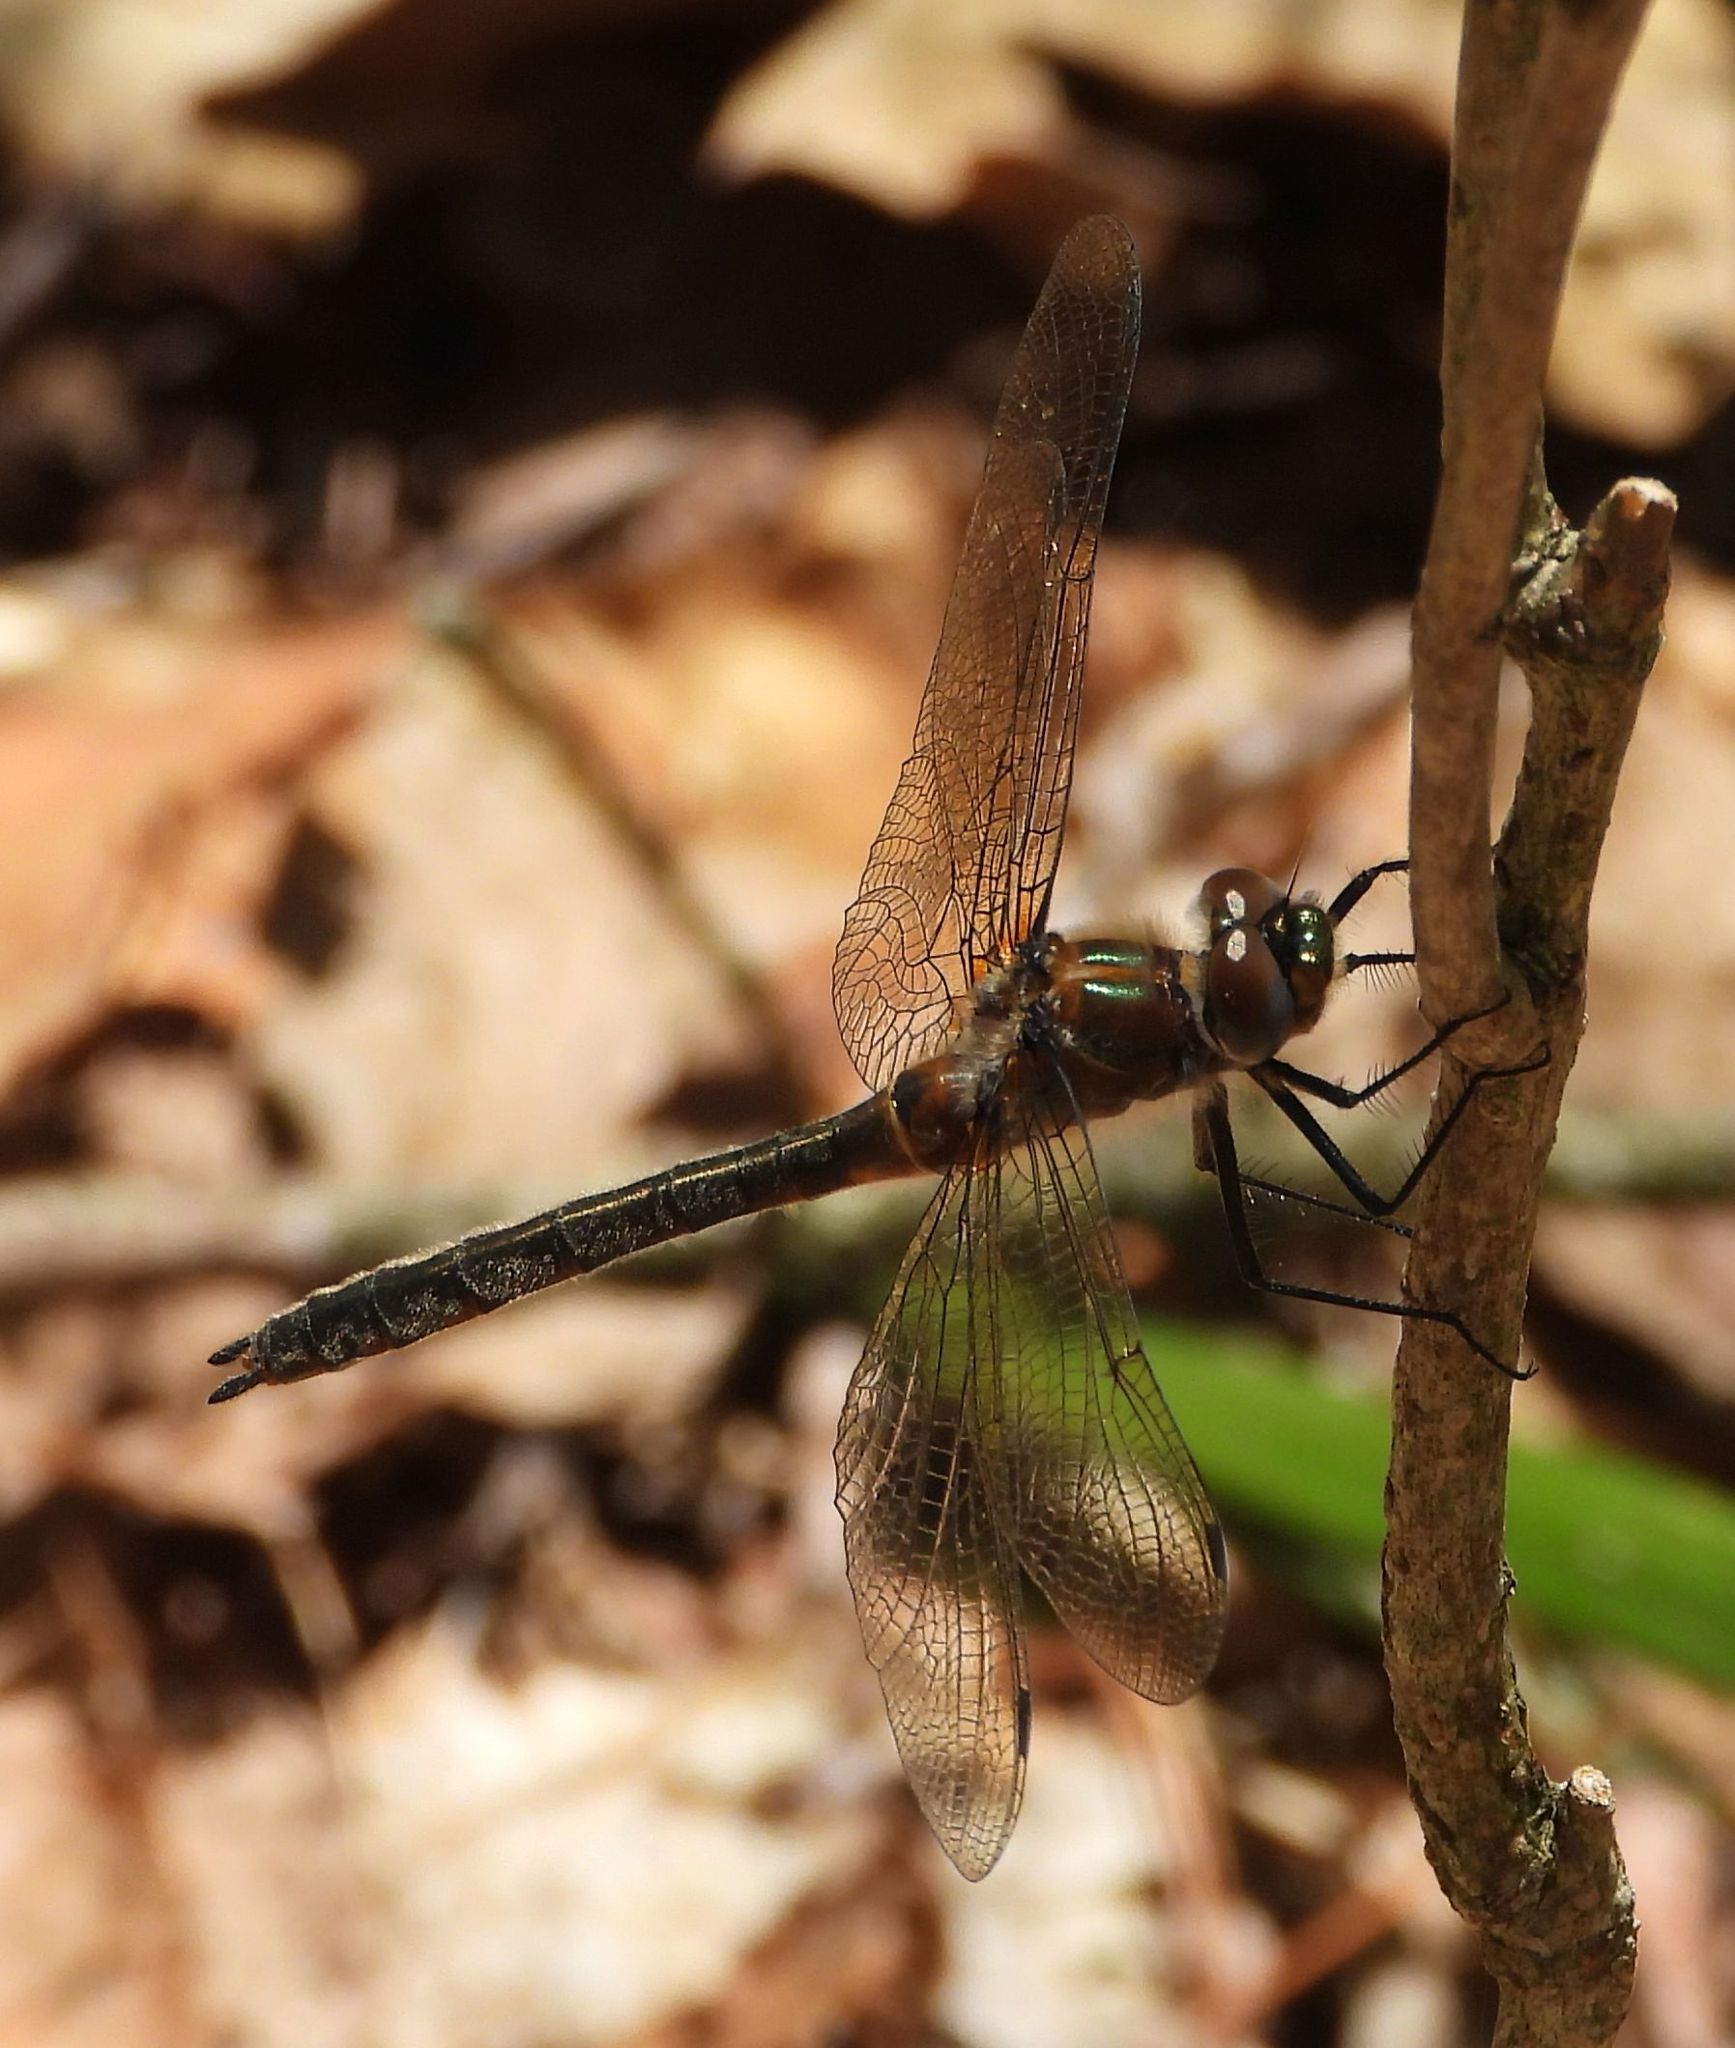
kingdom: Animalia
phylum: Arthropoda
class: Insecta
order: Odonata
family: Corduliidae
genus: Cordulia
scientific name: Cordulia shurtleffii
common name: American emerald
